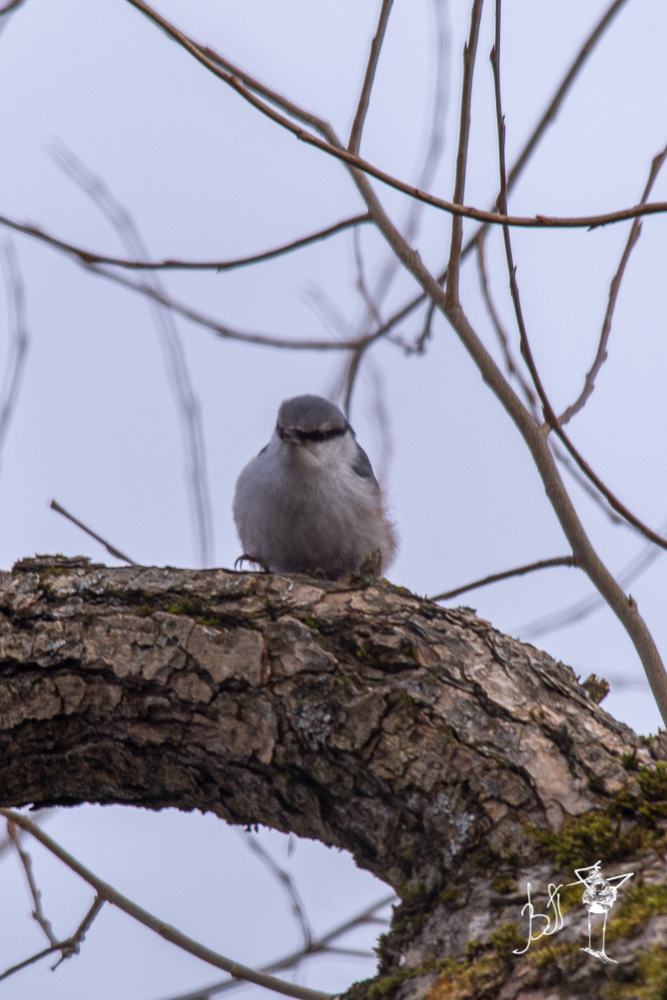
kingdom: Animalia
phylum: Chordata
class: Aves
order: Passeriformes
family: Sittidae
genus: Sitta
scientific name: Sitta europaea
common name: Eurasian nuthatch
